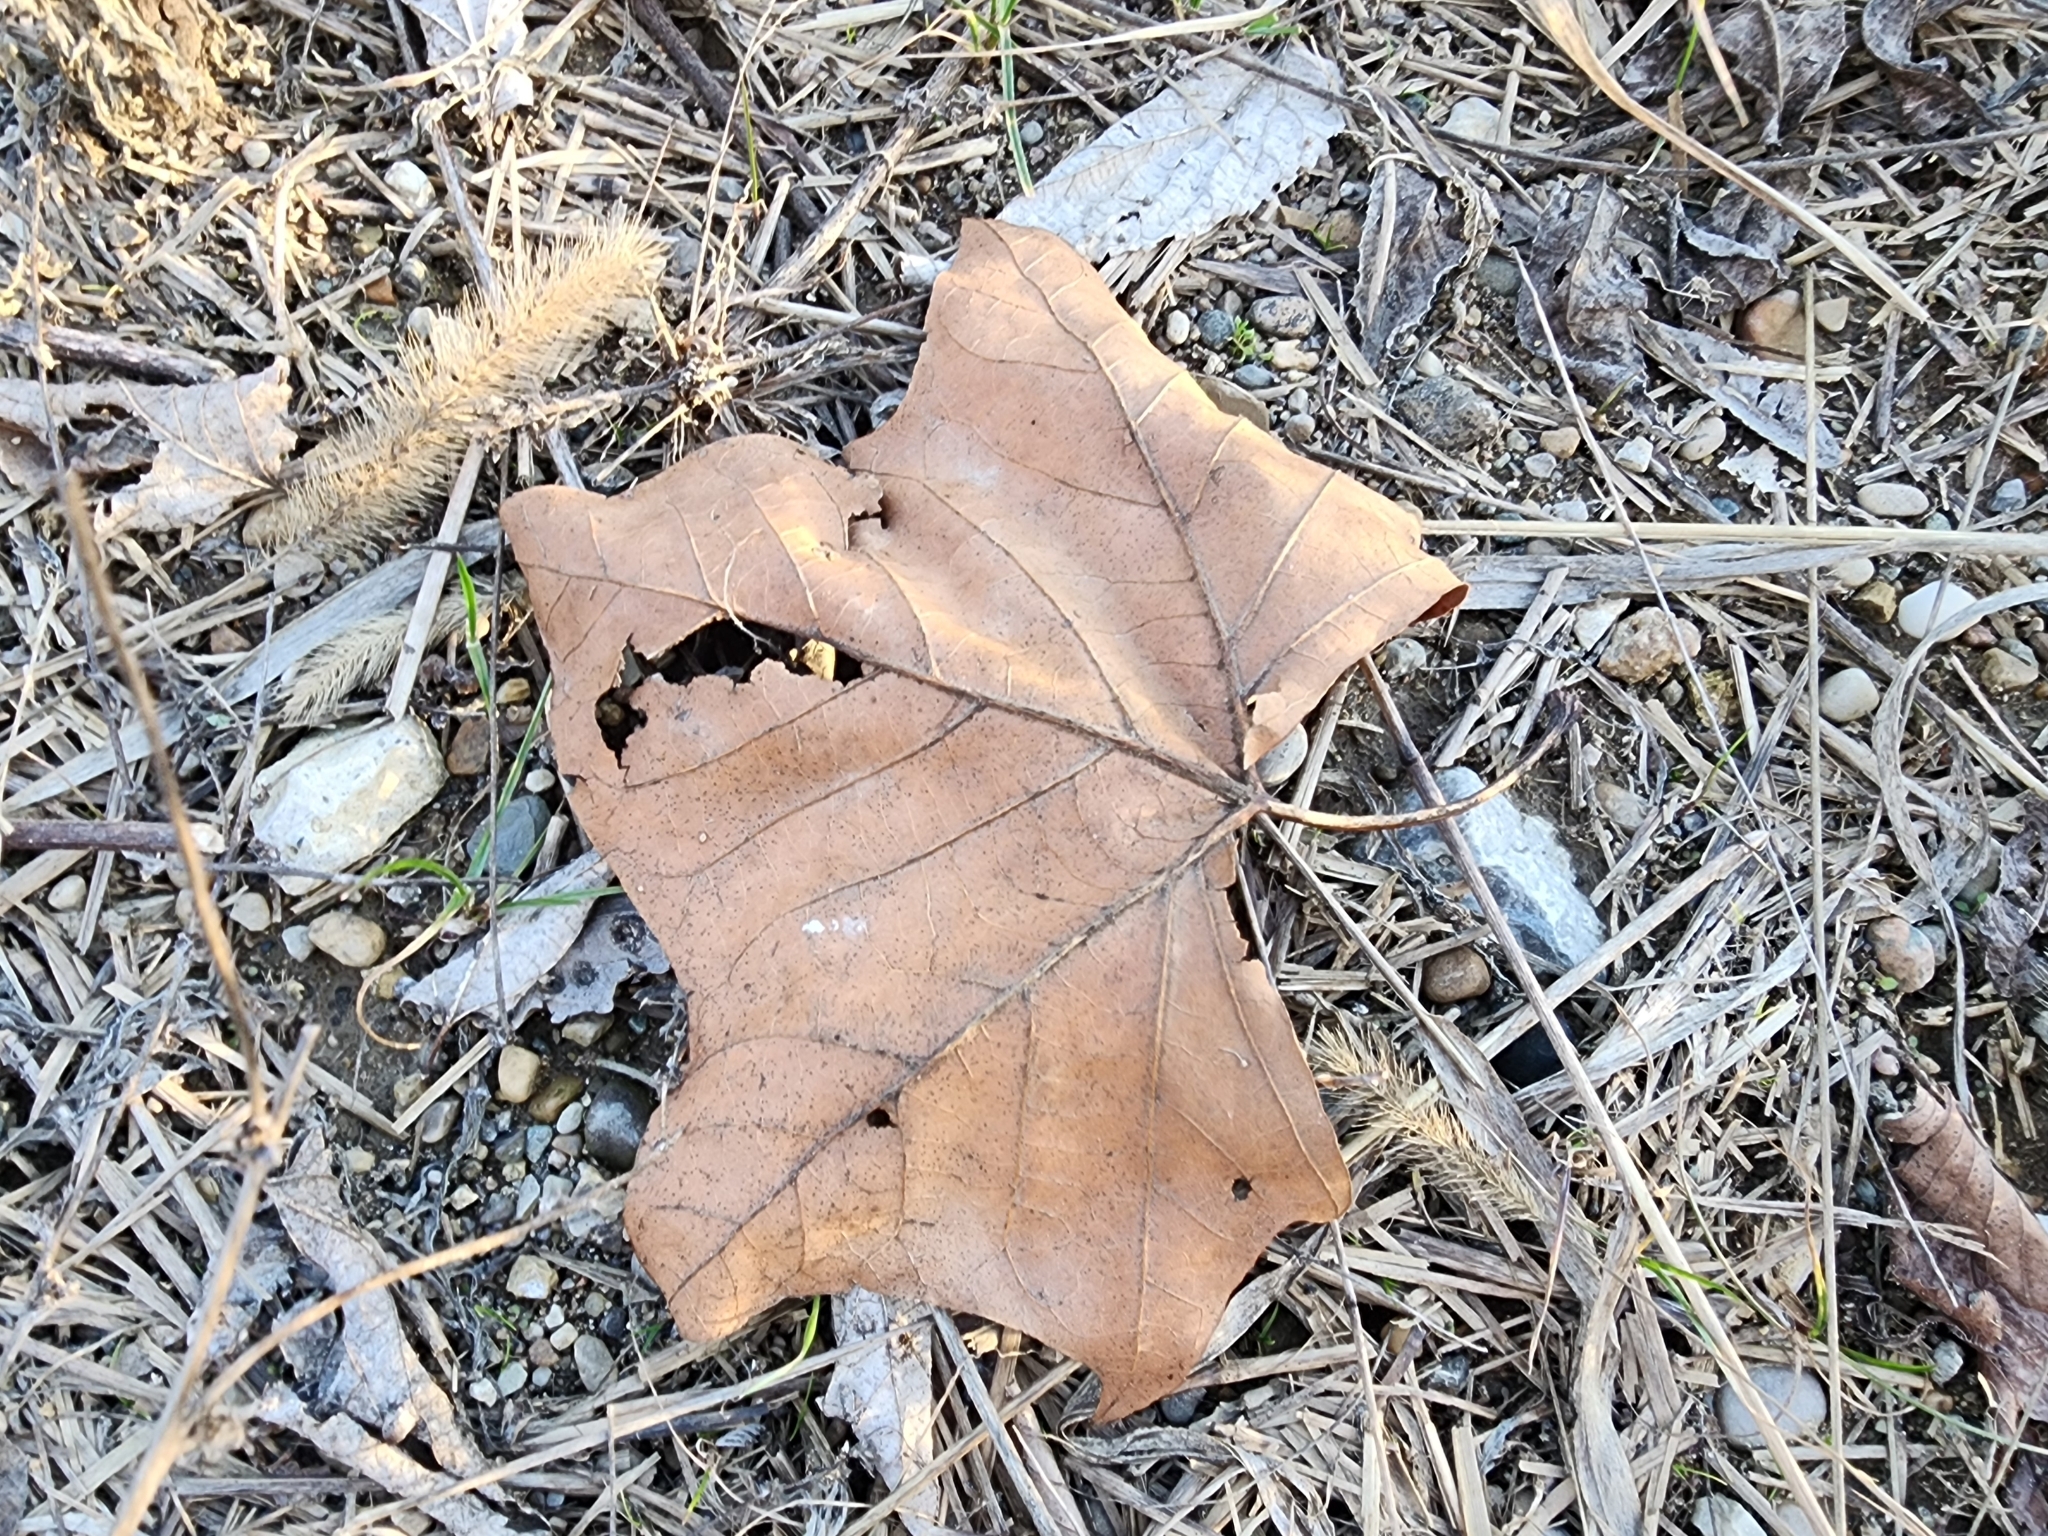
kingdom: Plantae
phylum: Tracheophyta
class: Magnoliopsida
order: Proteales
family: Platanaceae
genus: Platanus
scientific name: Platanus occidentalis
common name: American sycamore
